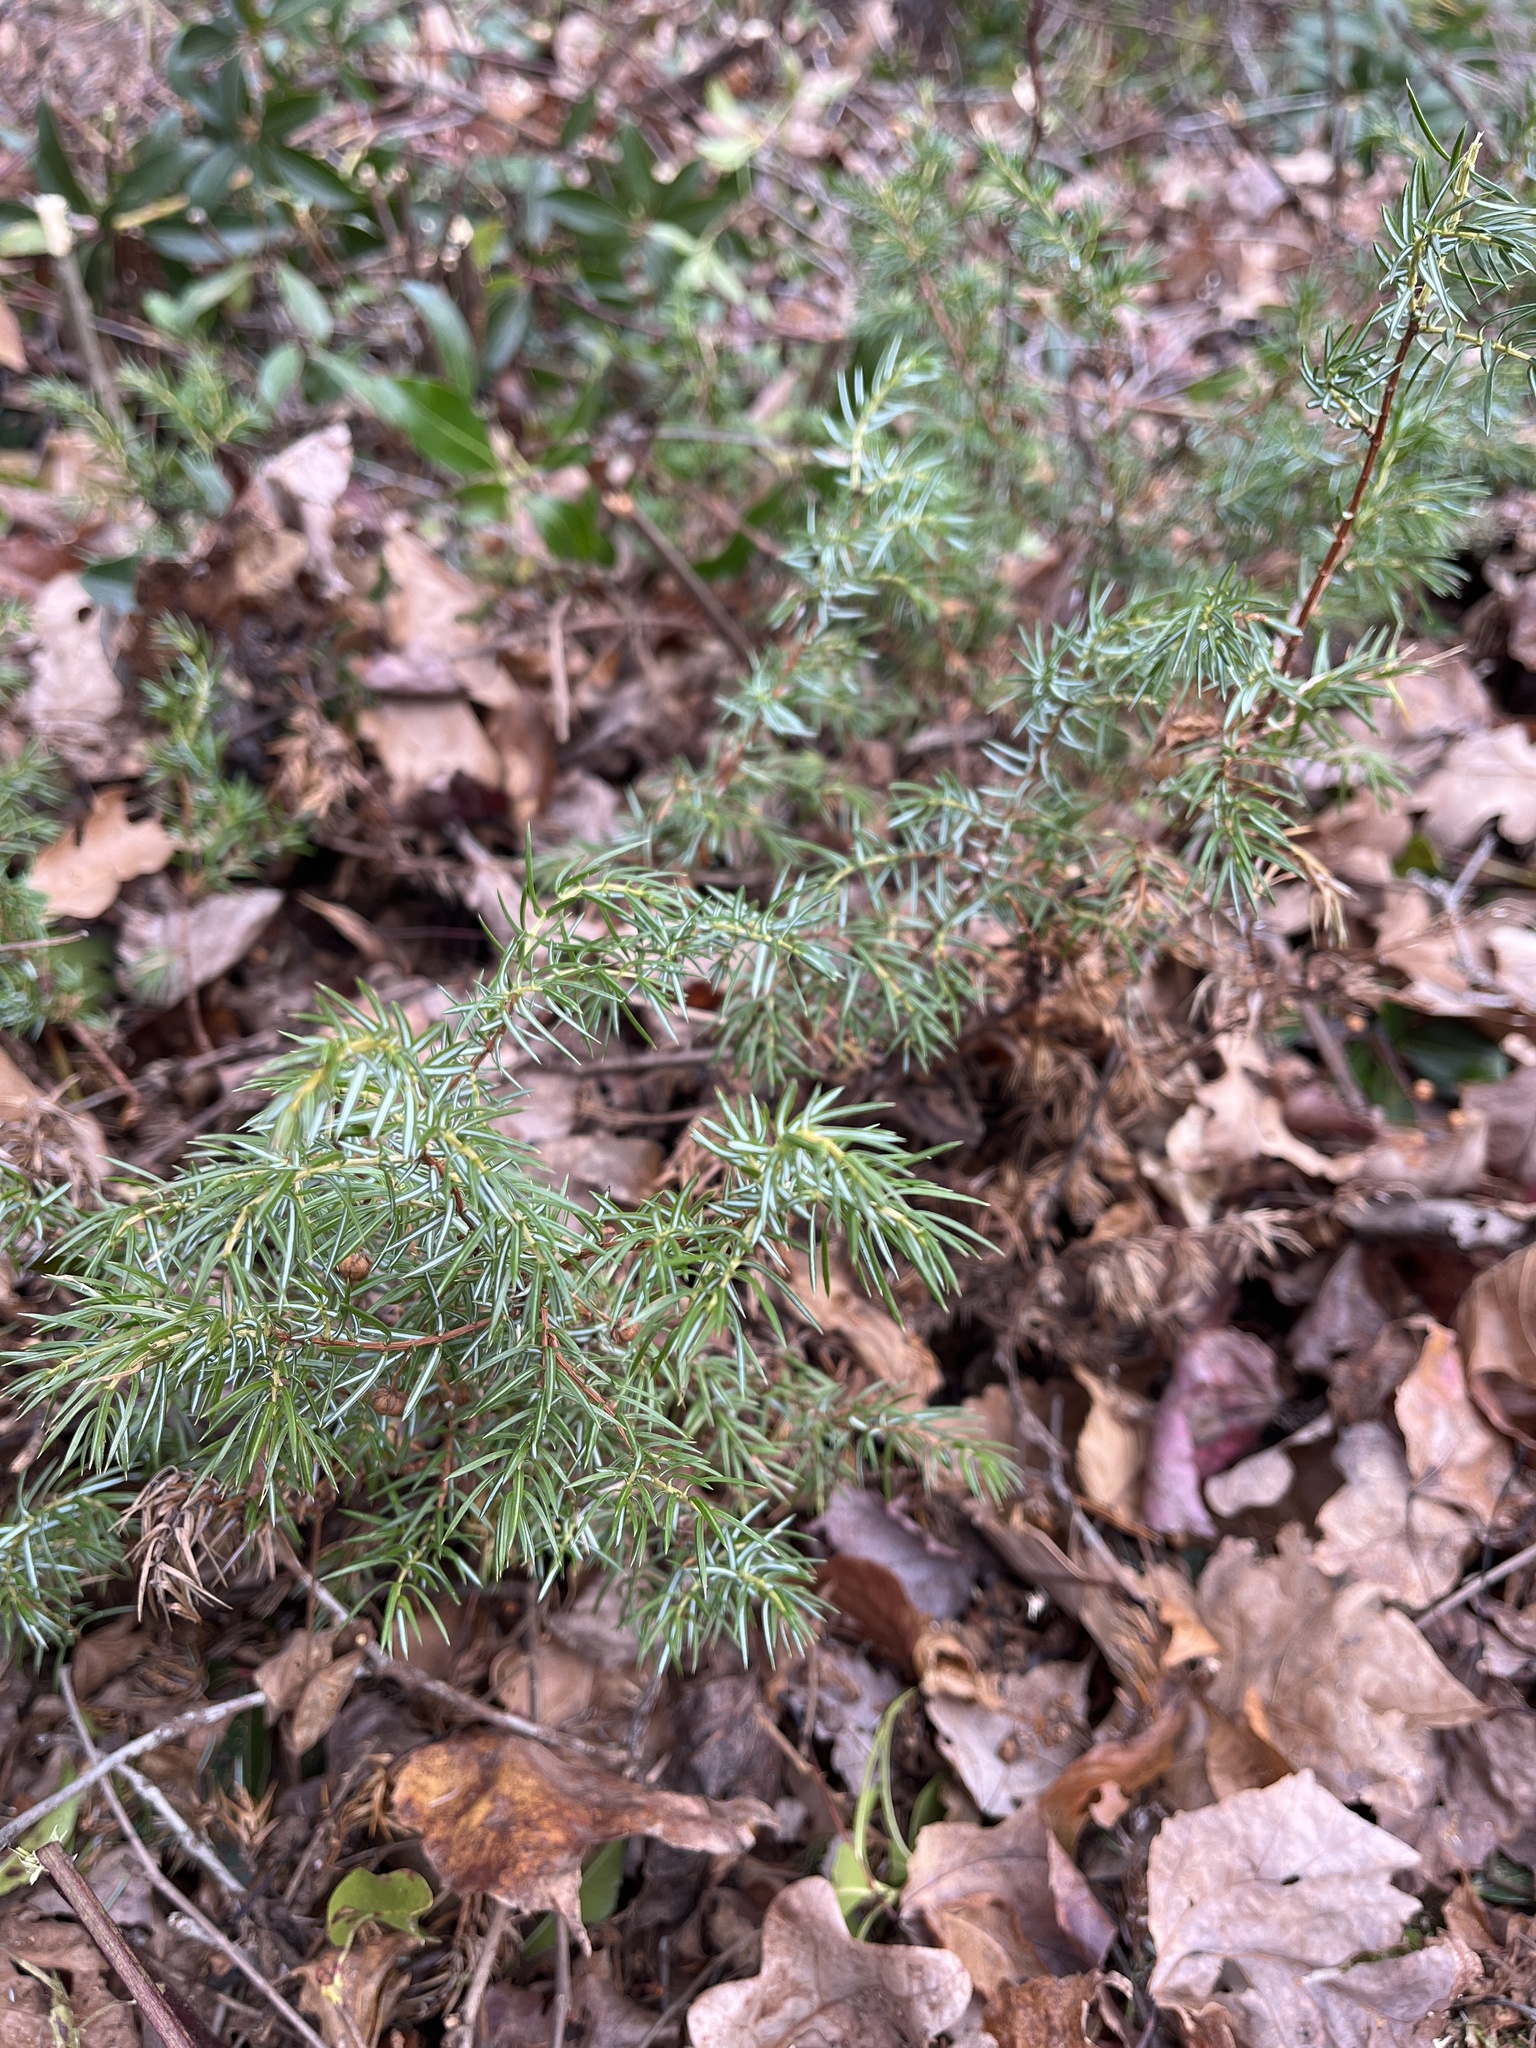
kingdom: Plantae
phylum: Tracheophyta
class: Pinopsida
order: Pinales
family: Cupressaceae
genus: Juniperus
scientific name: Juniperus communis
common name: Common juniper
